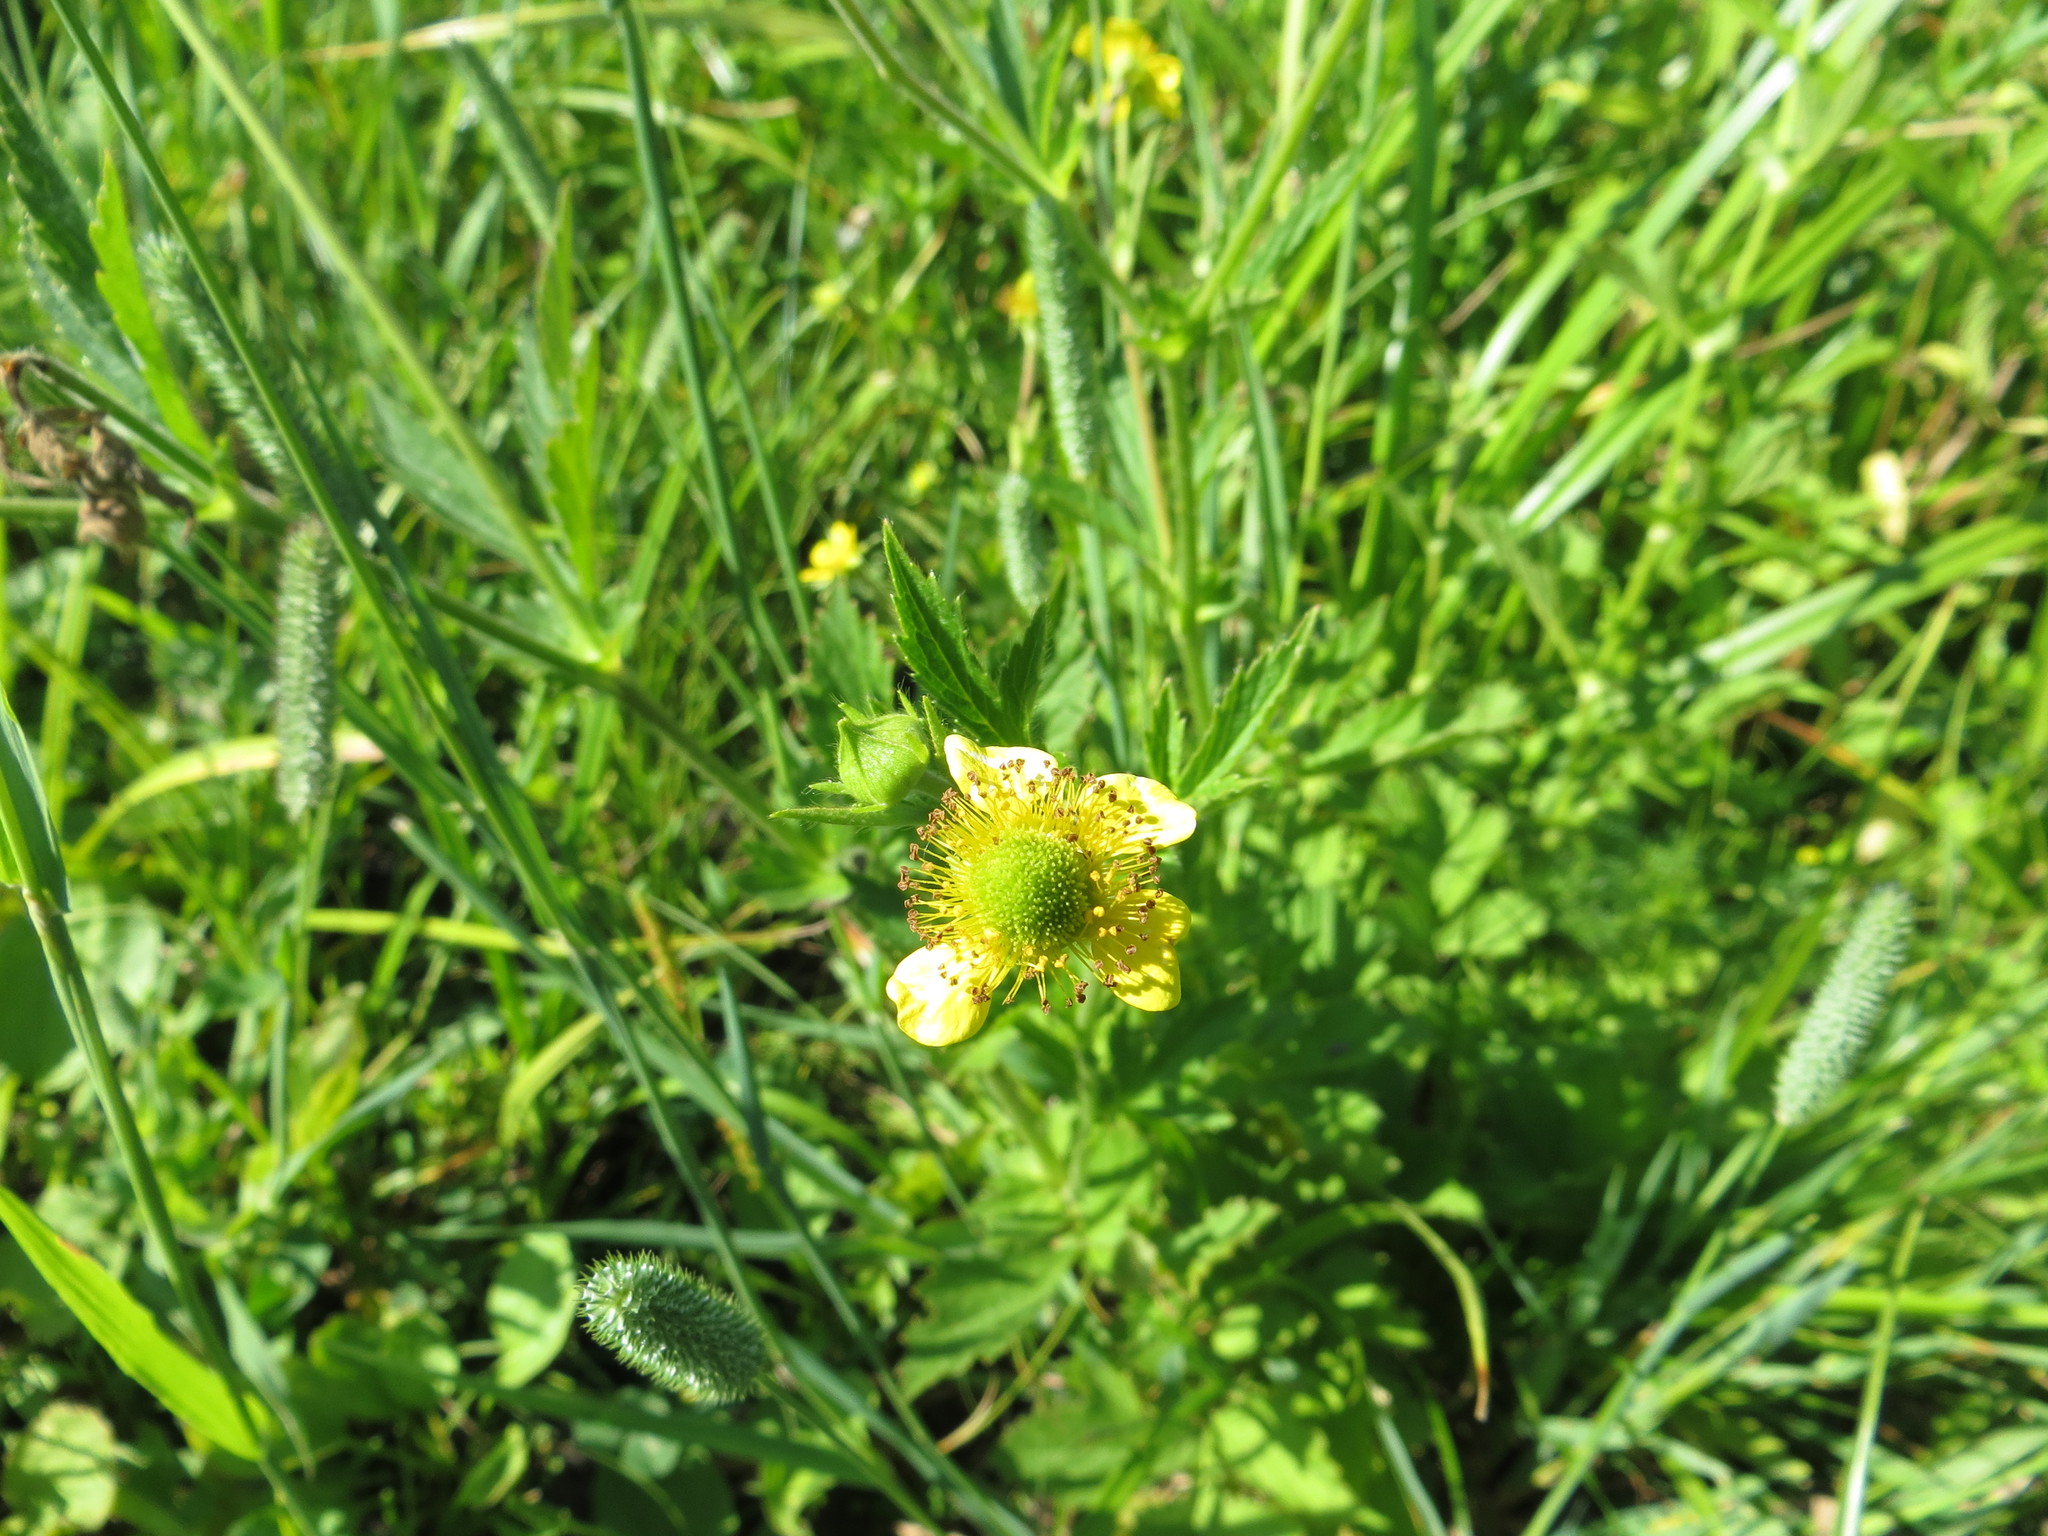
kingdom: Plantae
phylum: Tracheophyta
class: Magnoliopsida
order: Rosales
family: Rosaceae
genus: Geum
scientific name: Geum aleppicum
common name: Yellow avens
